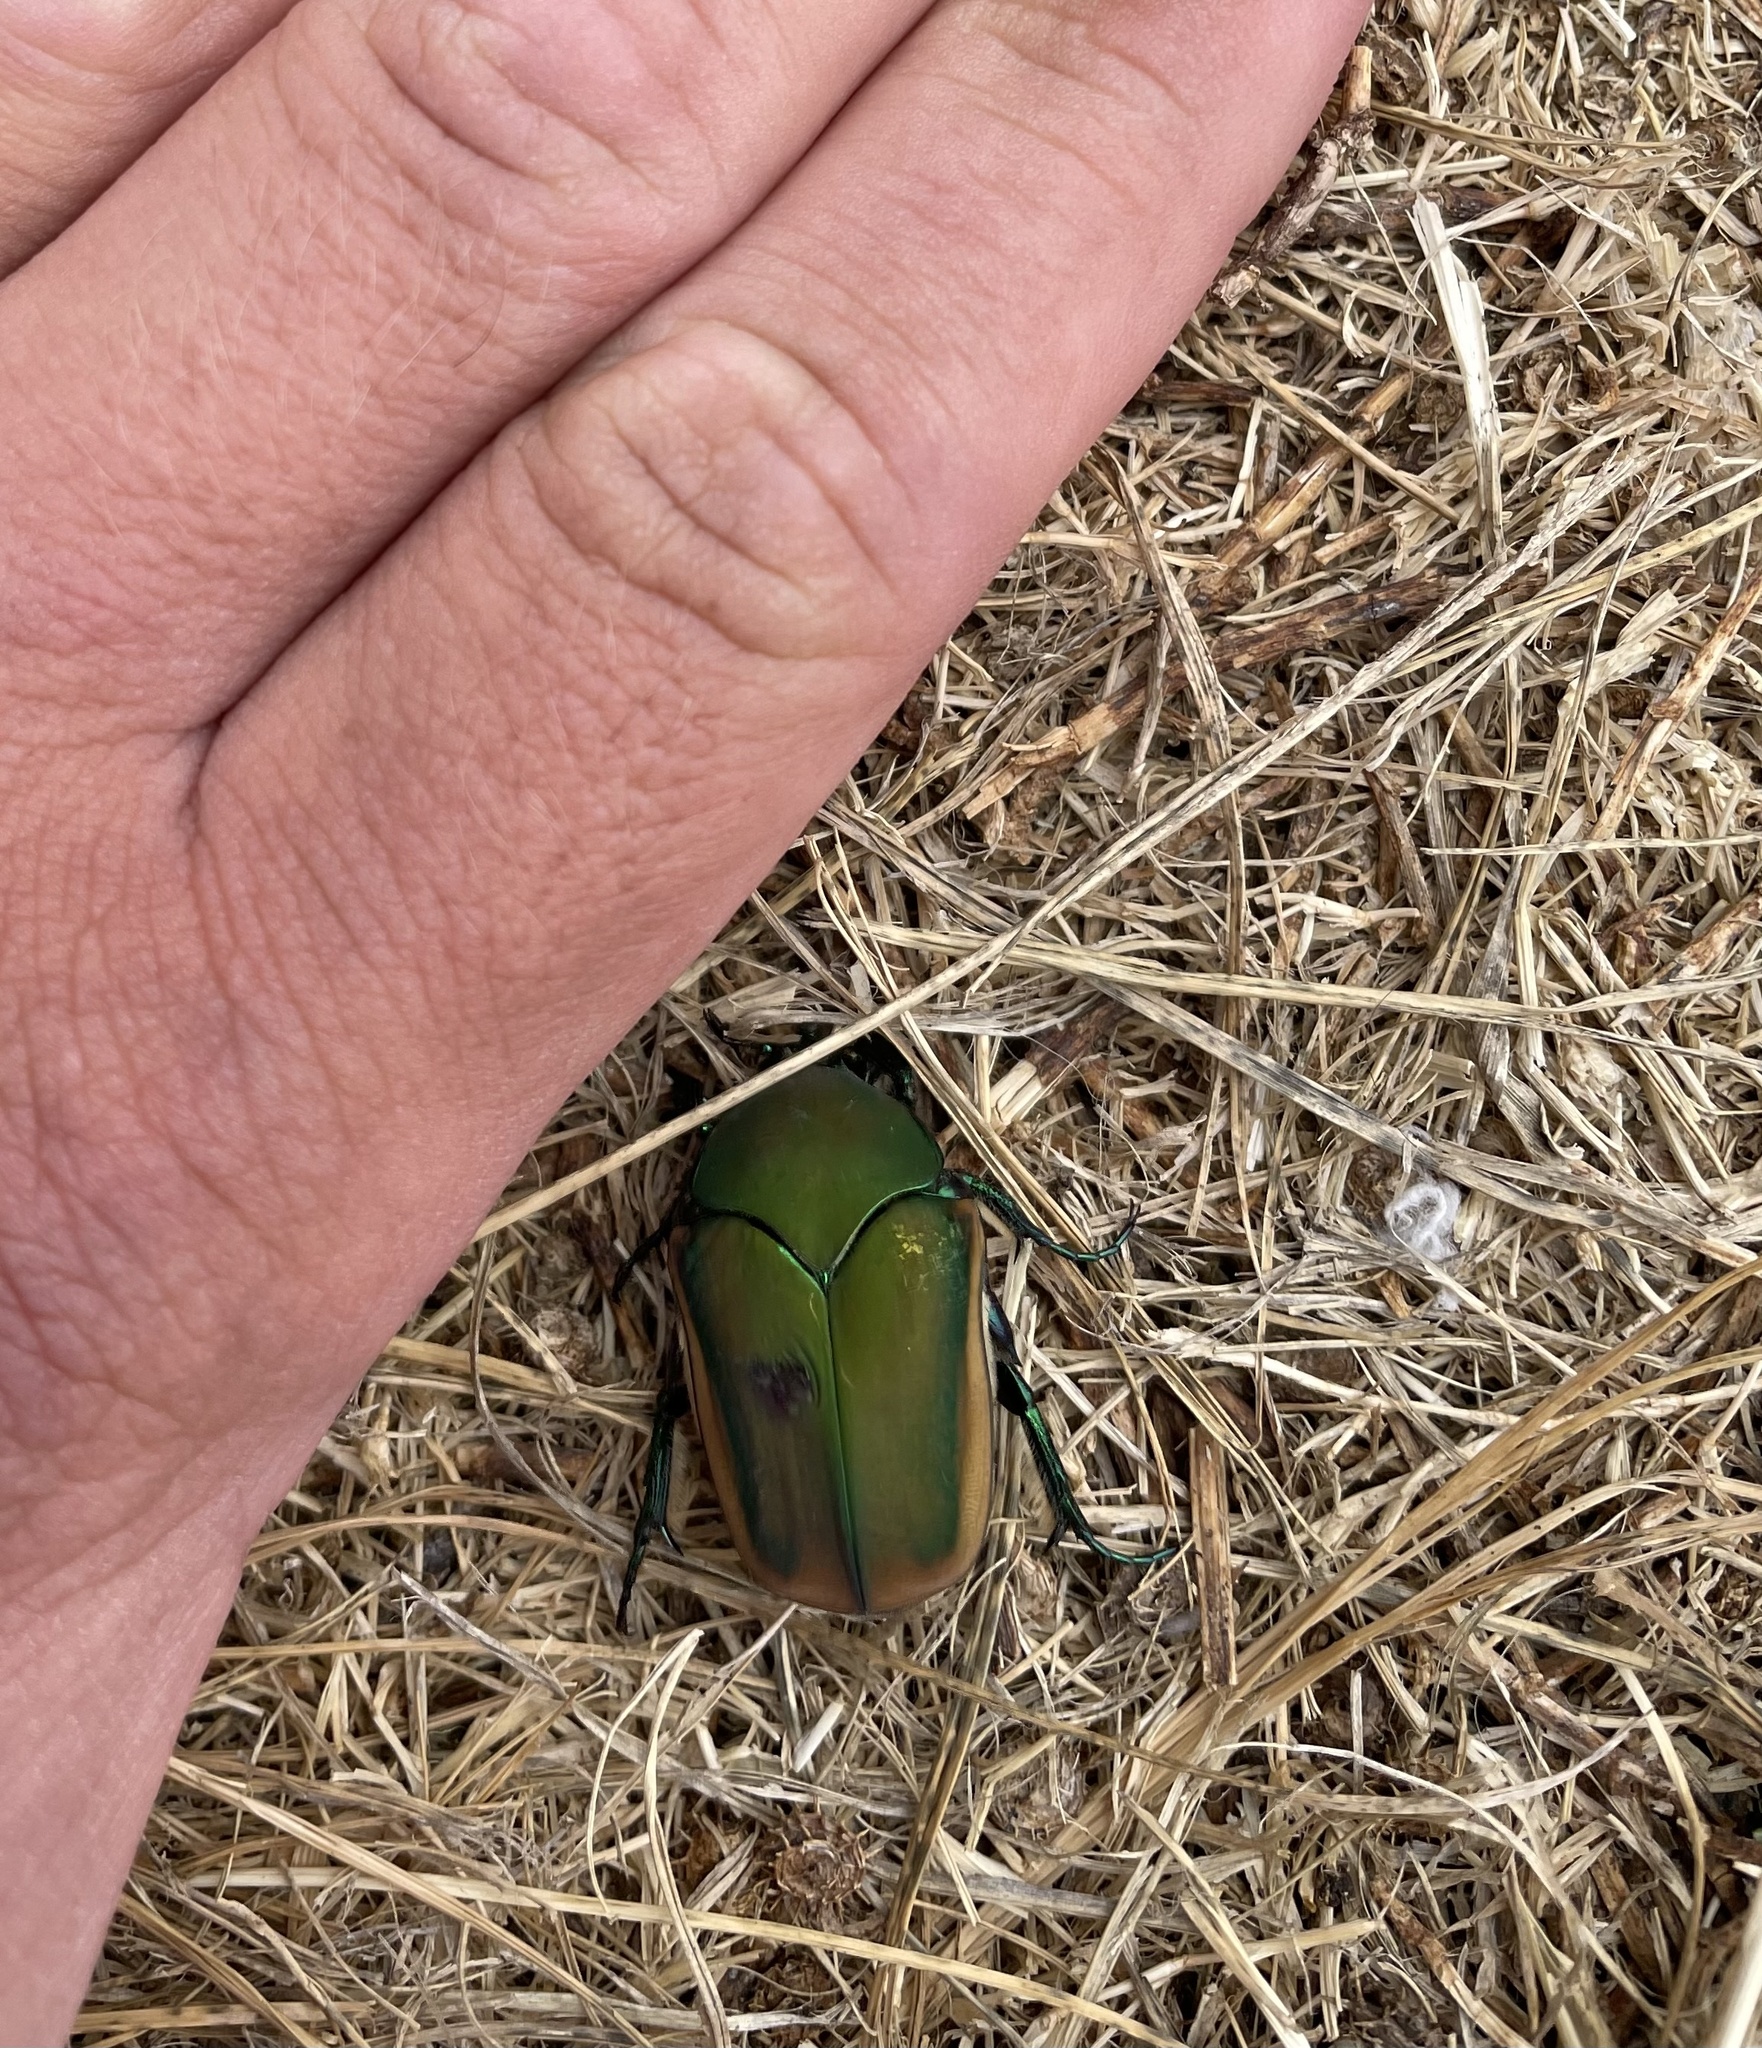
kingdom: Animalia
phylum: Arthropoda
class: Insecta
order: Coleoptera
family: Scarabaeidae
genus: Cotinis
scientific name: Cotinis mutabilis
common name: Figeater beetle
